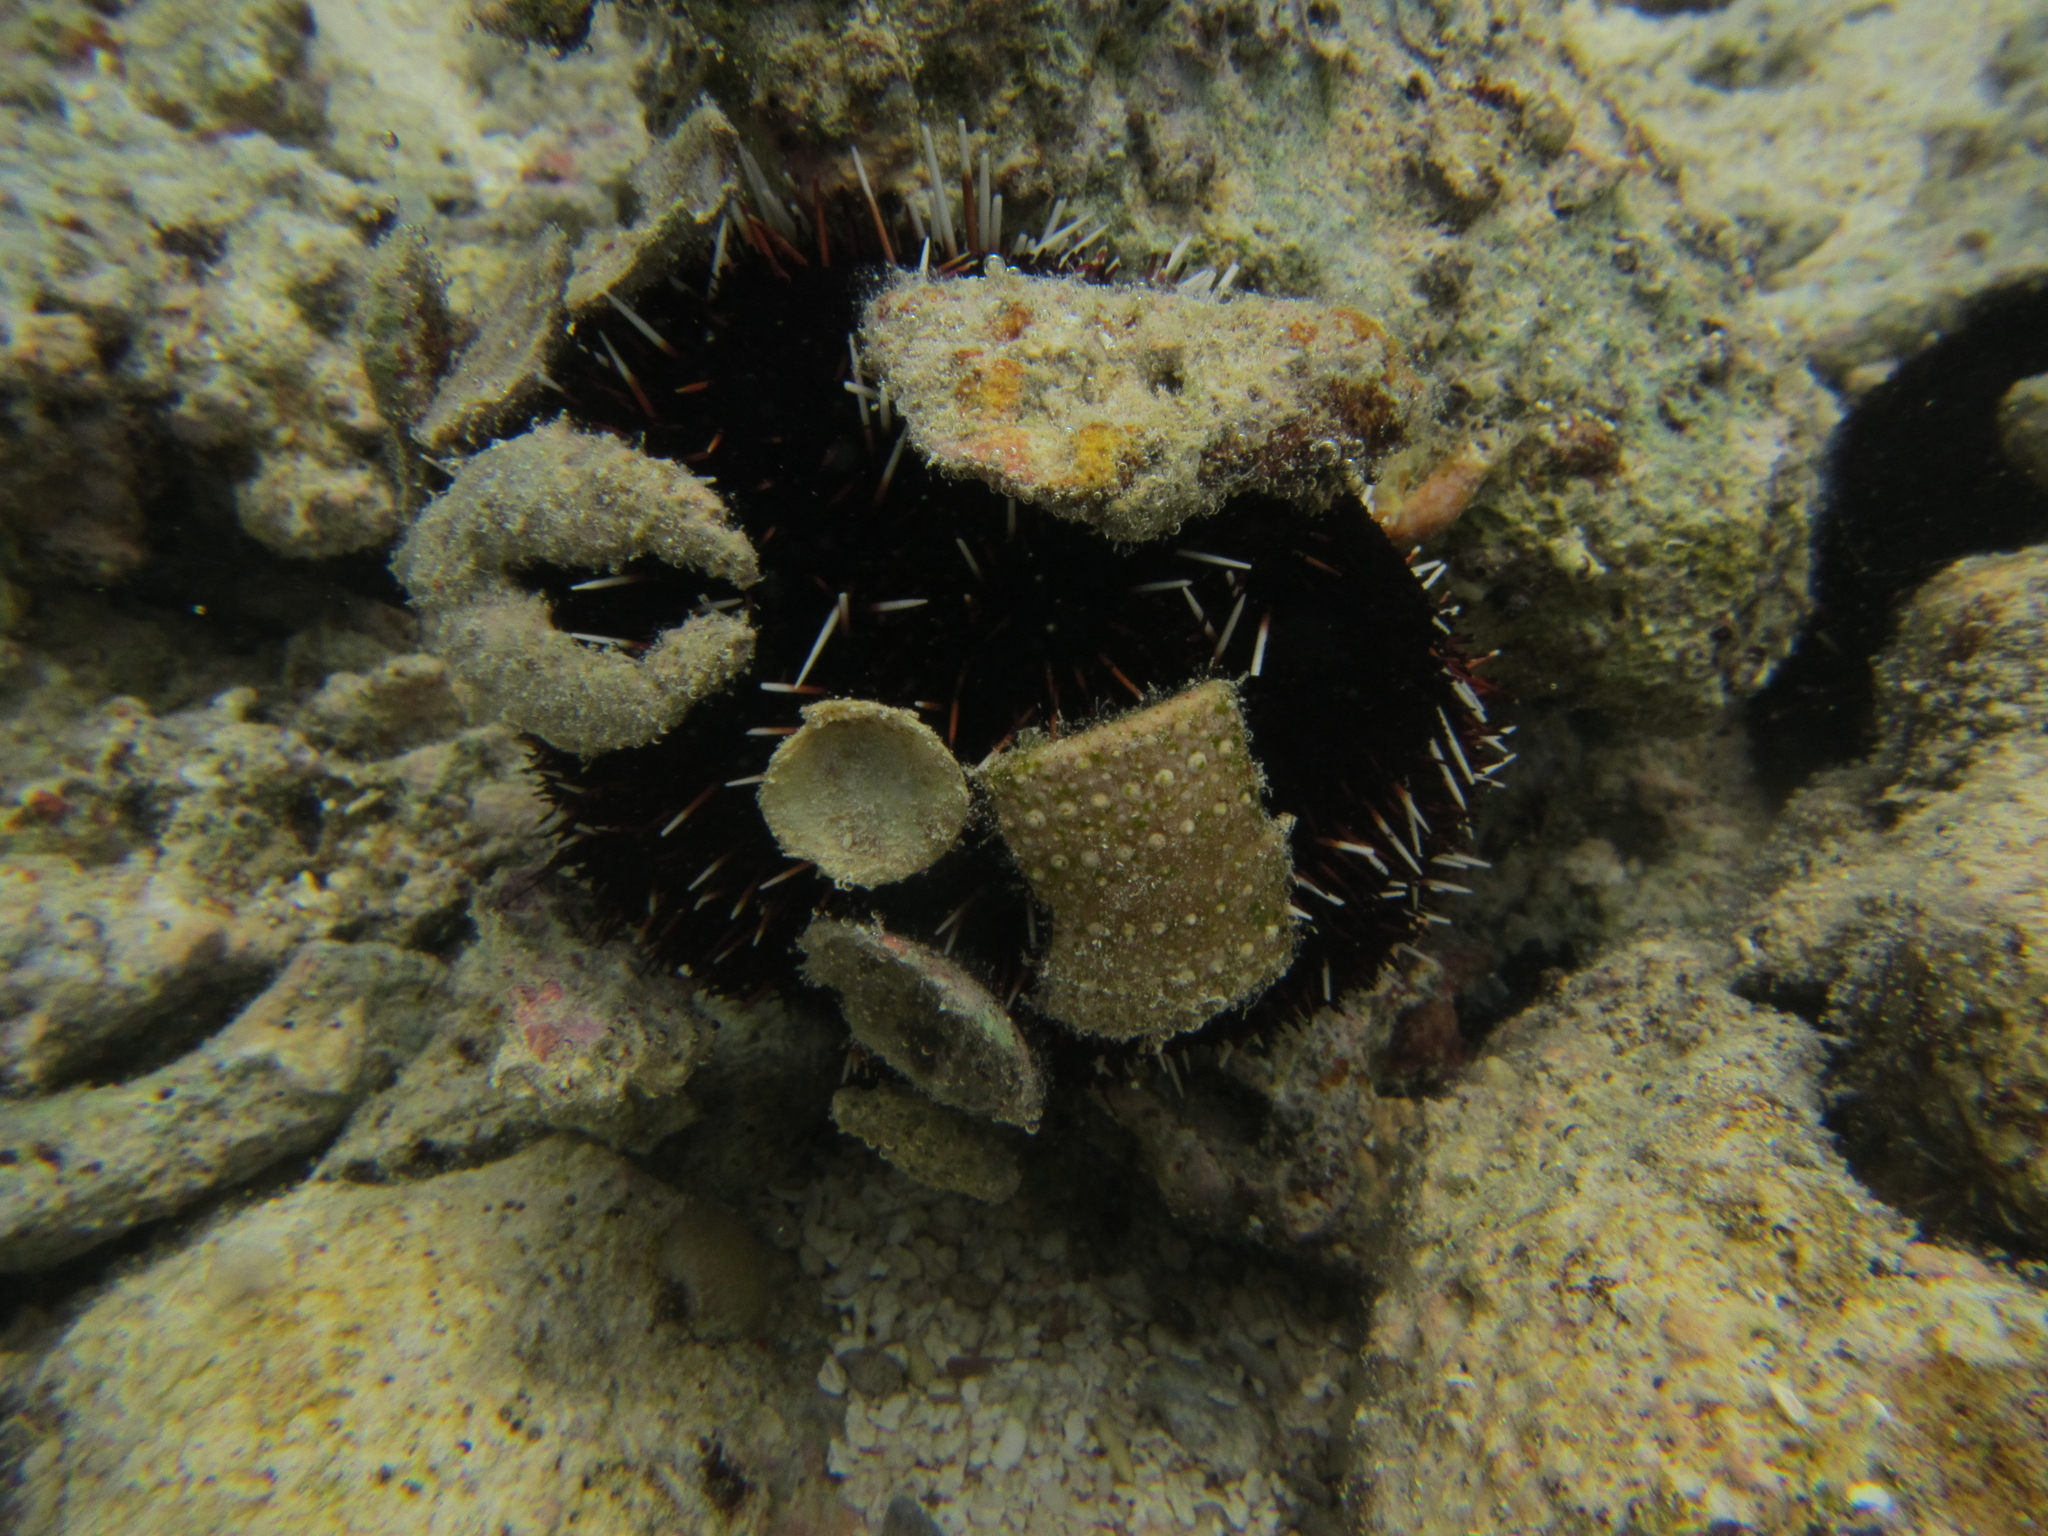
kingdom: Animalia
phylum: Echinodermata
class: Echinoidea
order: Camarodonta
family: Toxopneustidae
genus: Tripneustes
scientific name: Tripneustes gratilla
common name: Bischofsmützenseeigel
